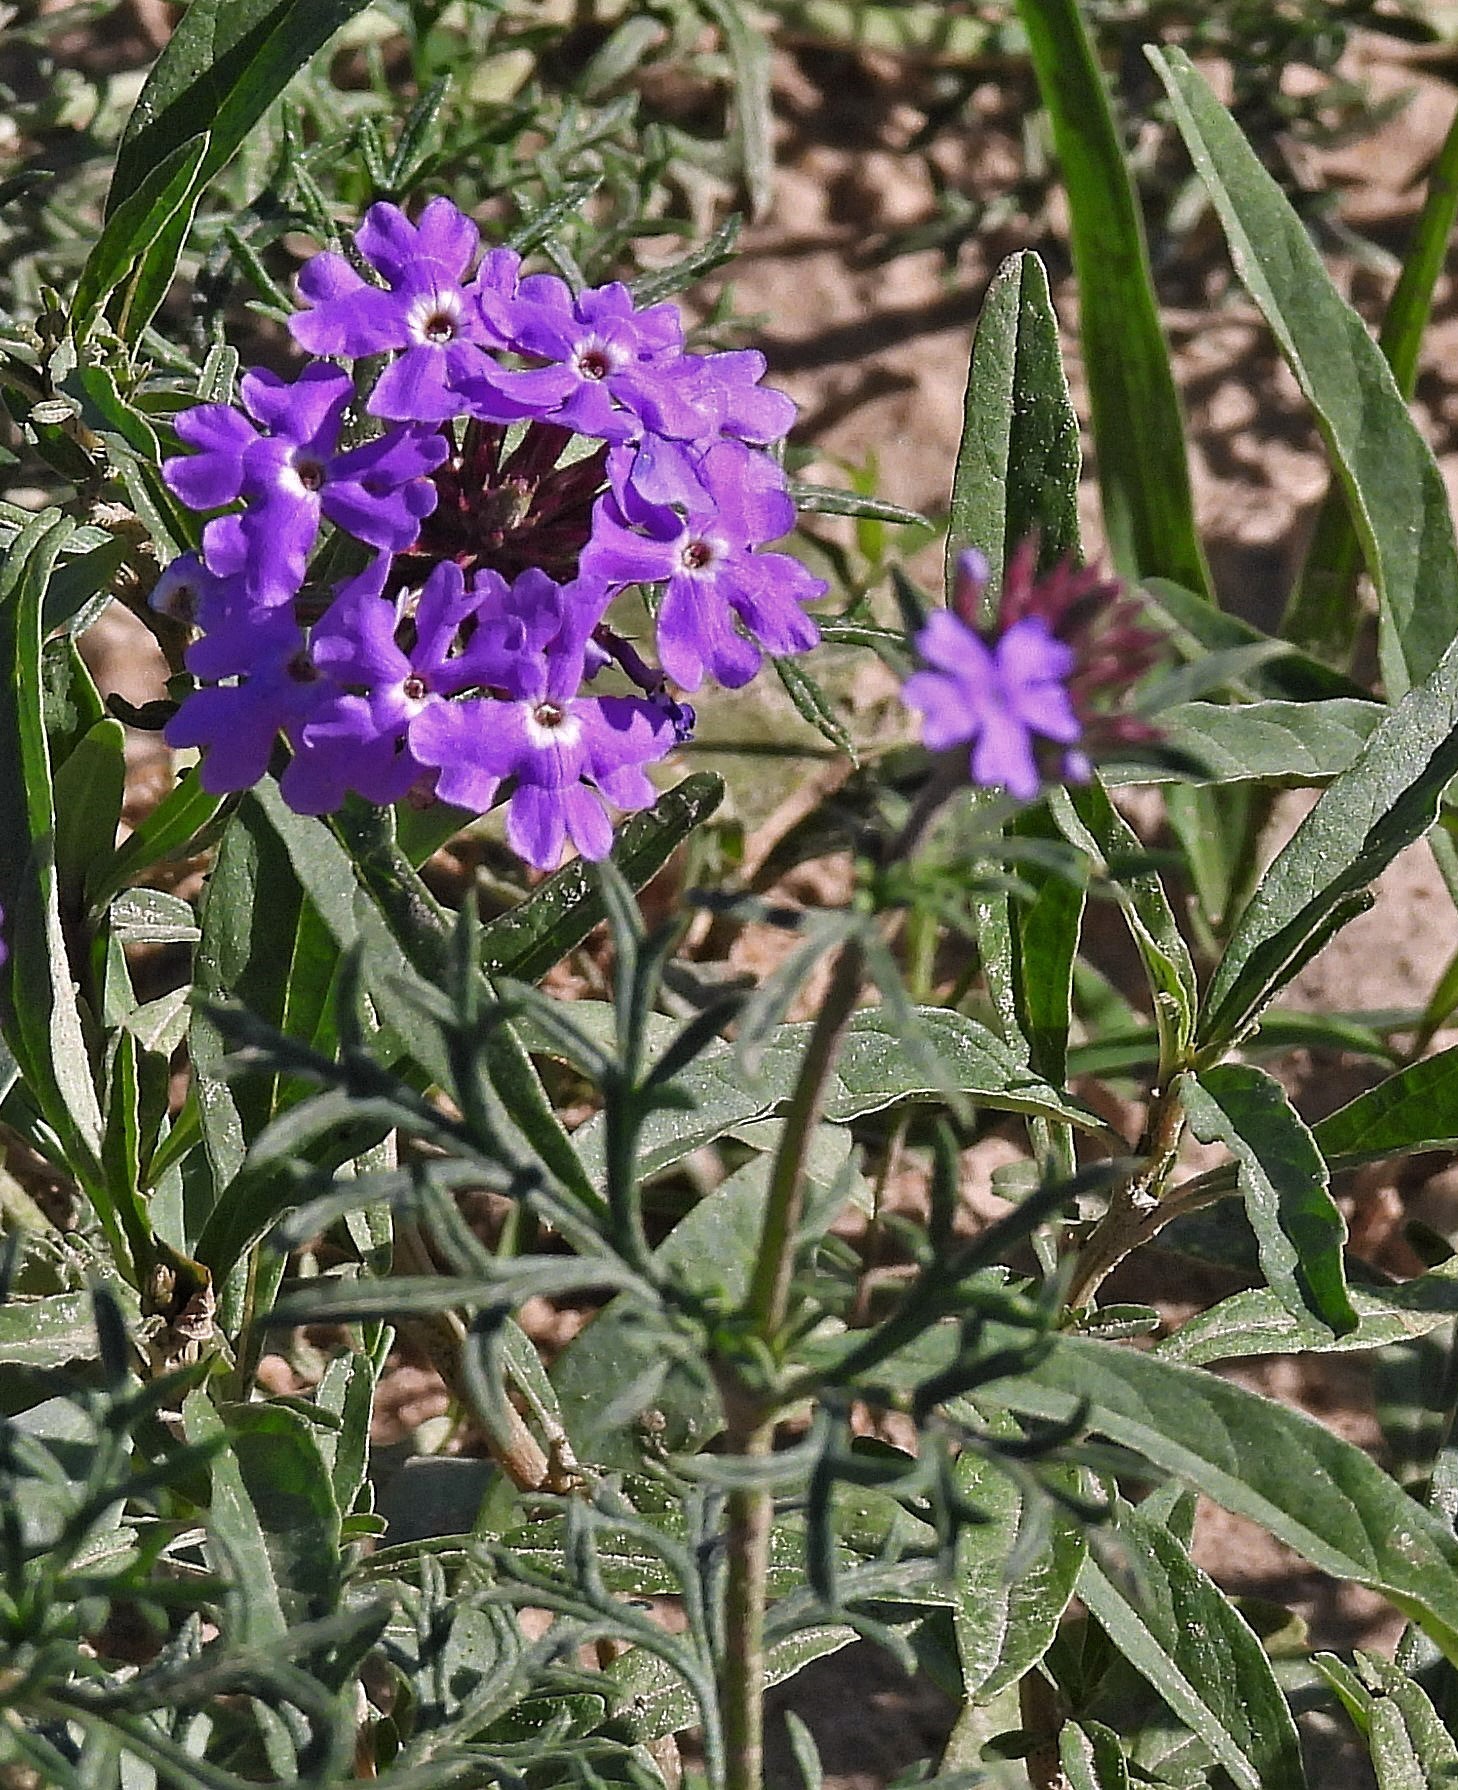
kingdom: Plantae
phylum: Tracheophyta
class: Magnoliopsida
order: Lamiales
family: Verbenaceae
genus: Verbena
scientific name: Verbena aristigera
